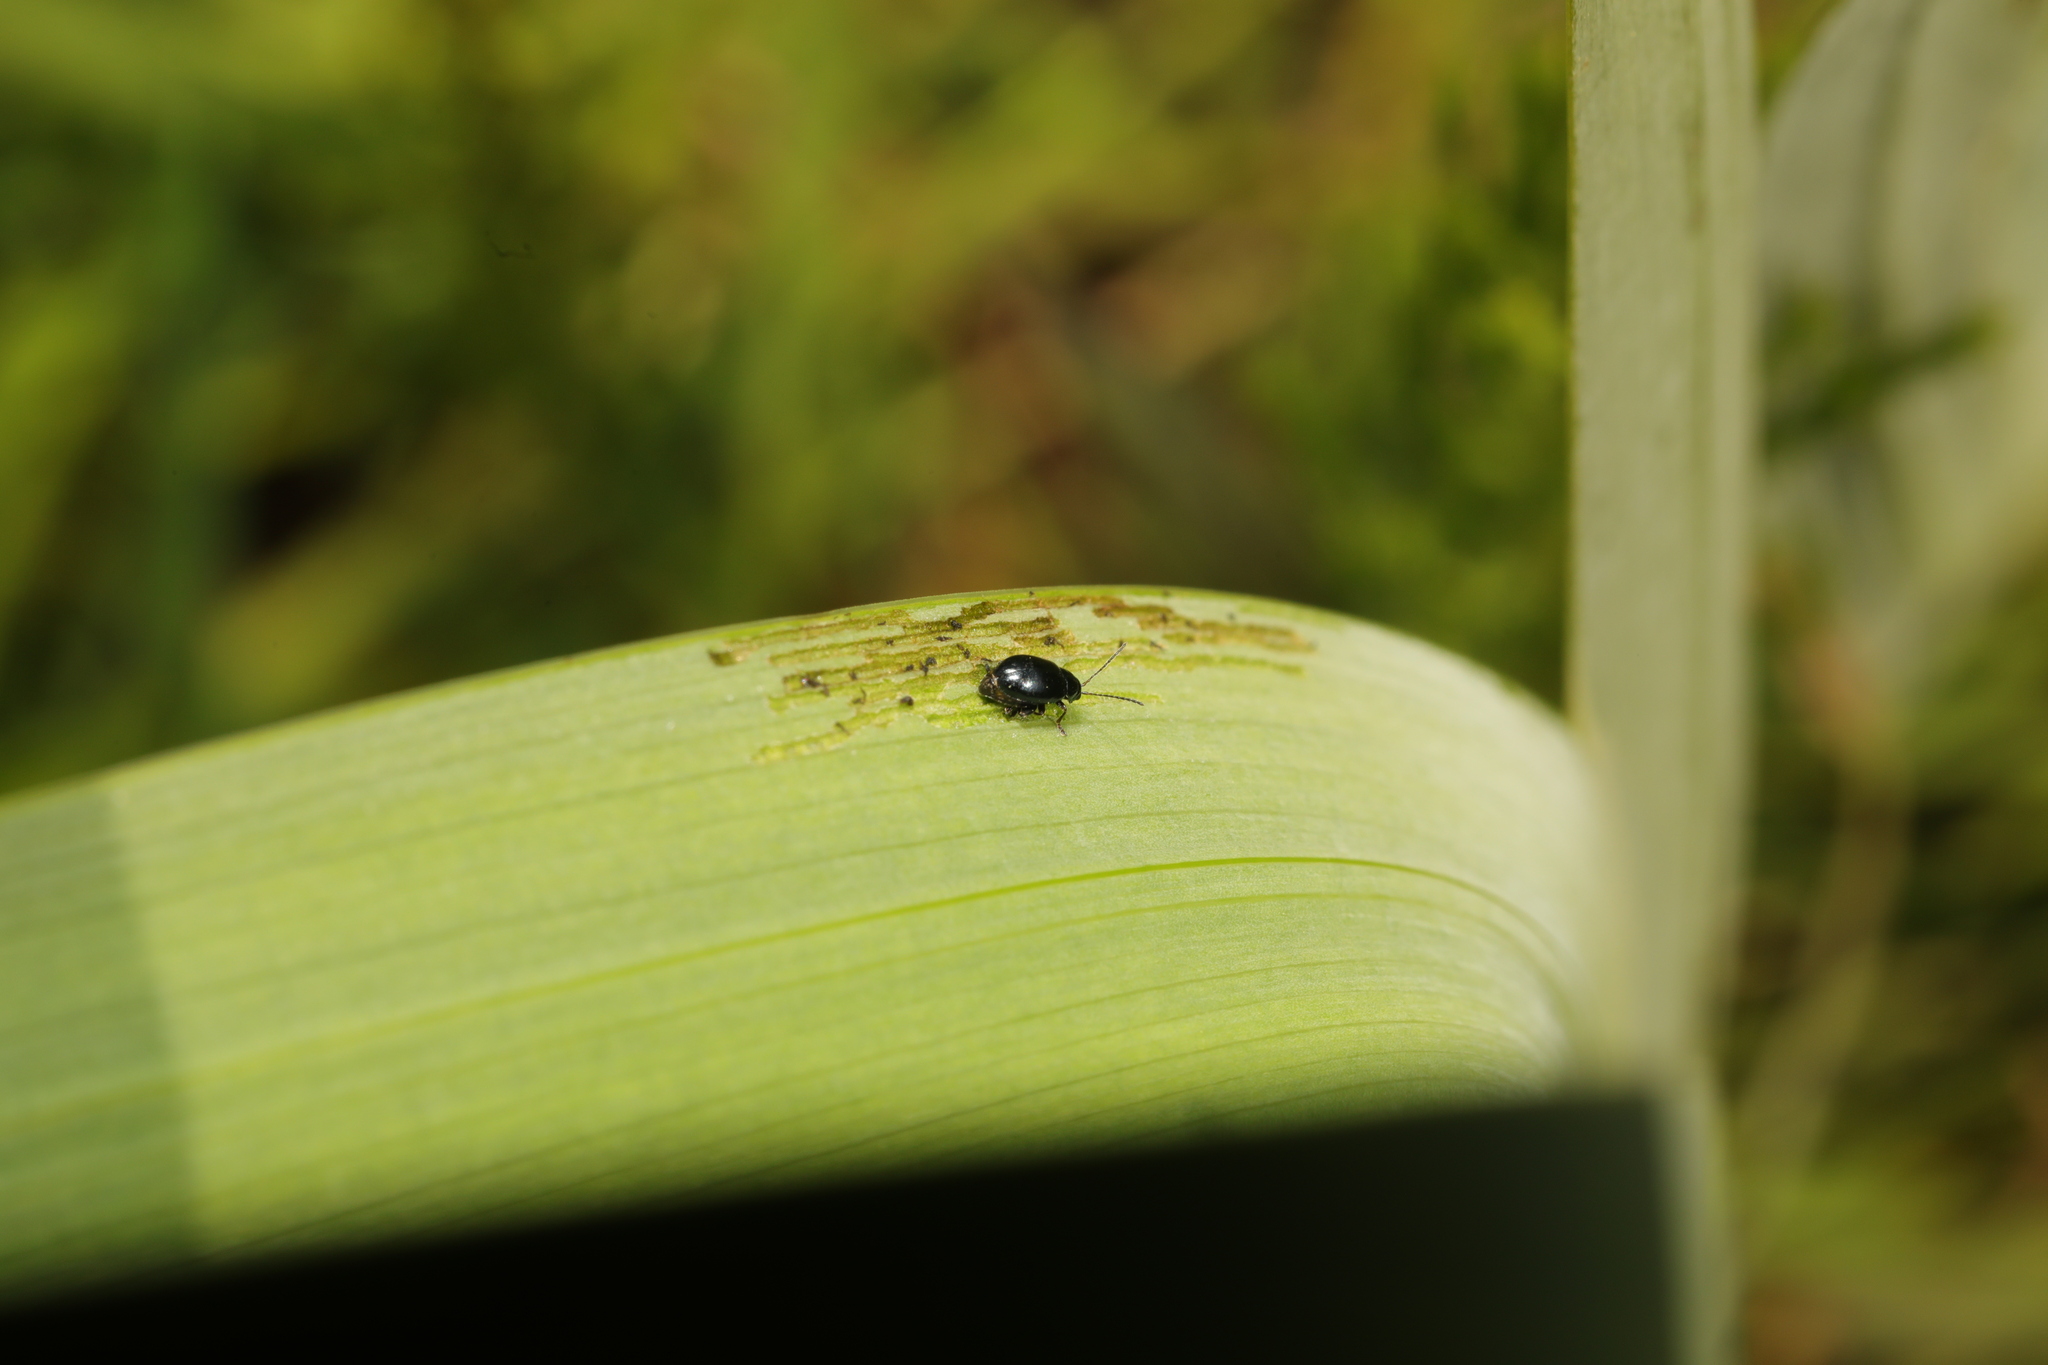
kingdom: Animalia
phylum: Arthropoda
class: Insecta
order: Coleoptera
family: Chrysomelidae
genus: Aphthona
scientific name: Aphthona nonstriata
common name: Iris flea beetle
